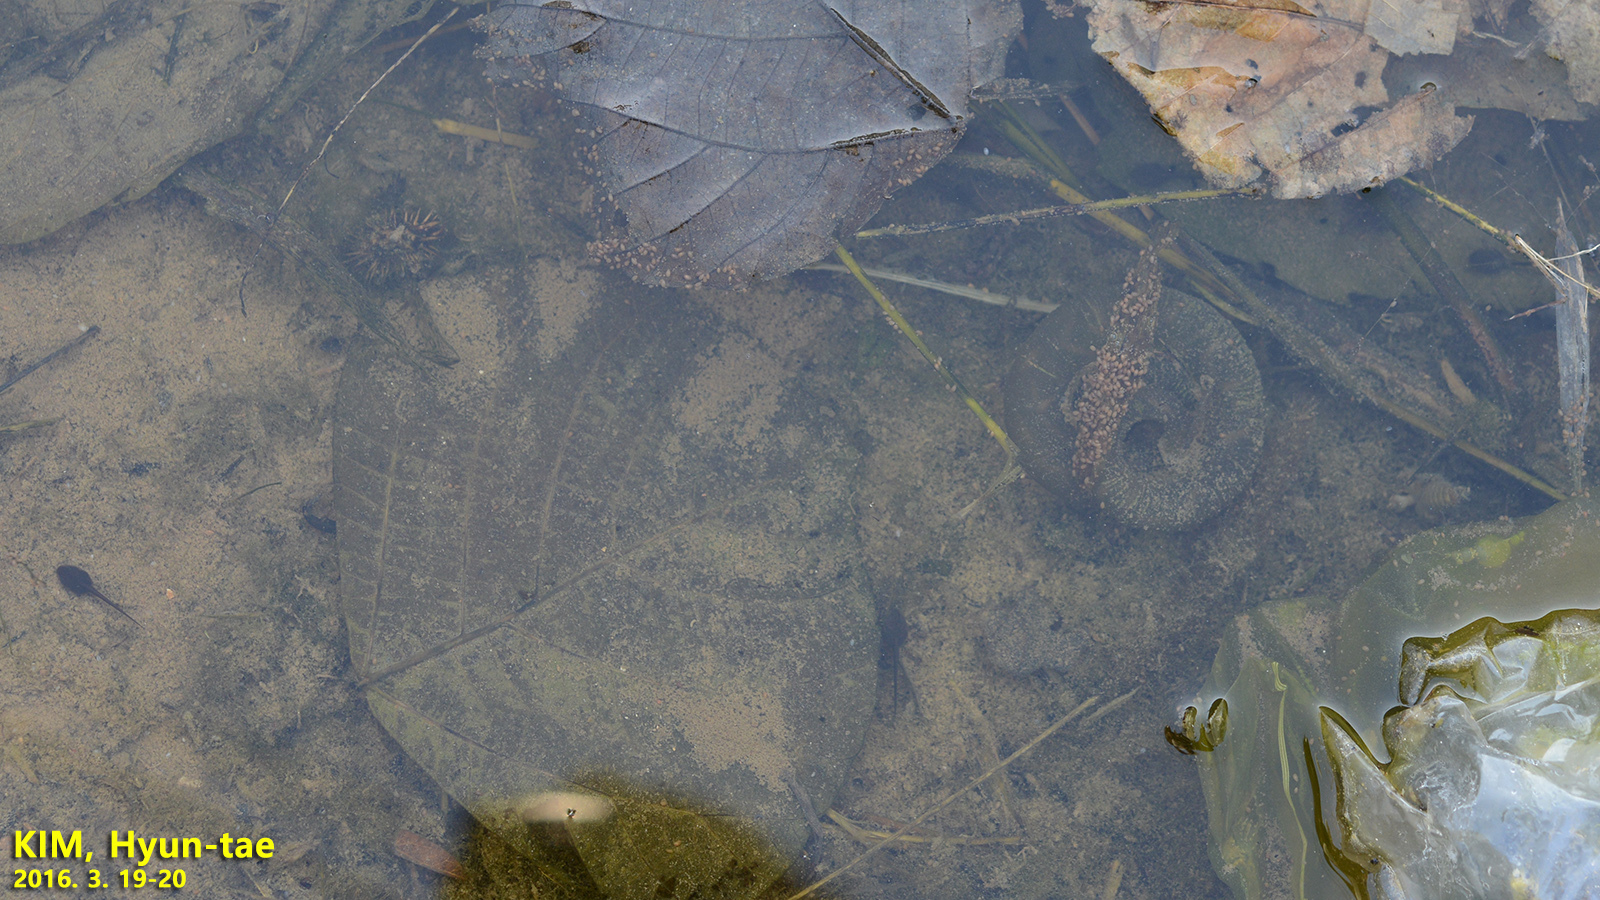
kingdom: Animalia
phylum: Chordata
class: Amphibia
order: Caudata
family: Hynobiidae
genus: Hynobius
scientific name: Hynobius quelpaertensis
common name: Cheju salamander
